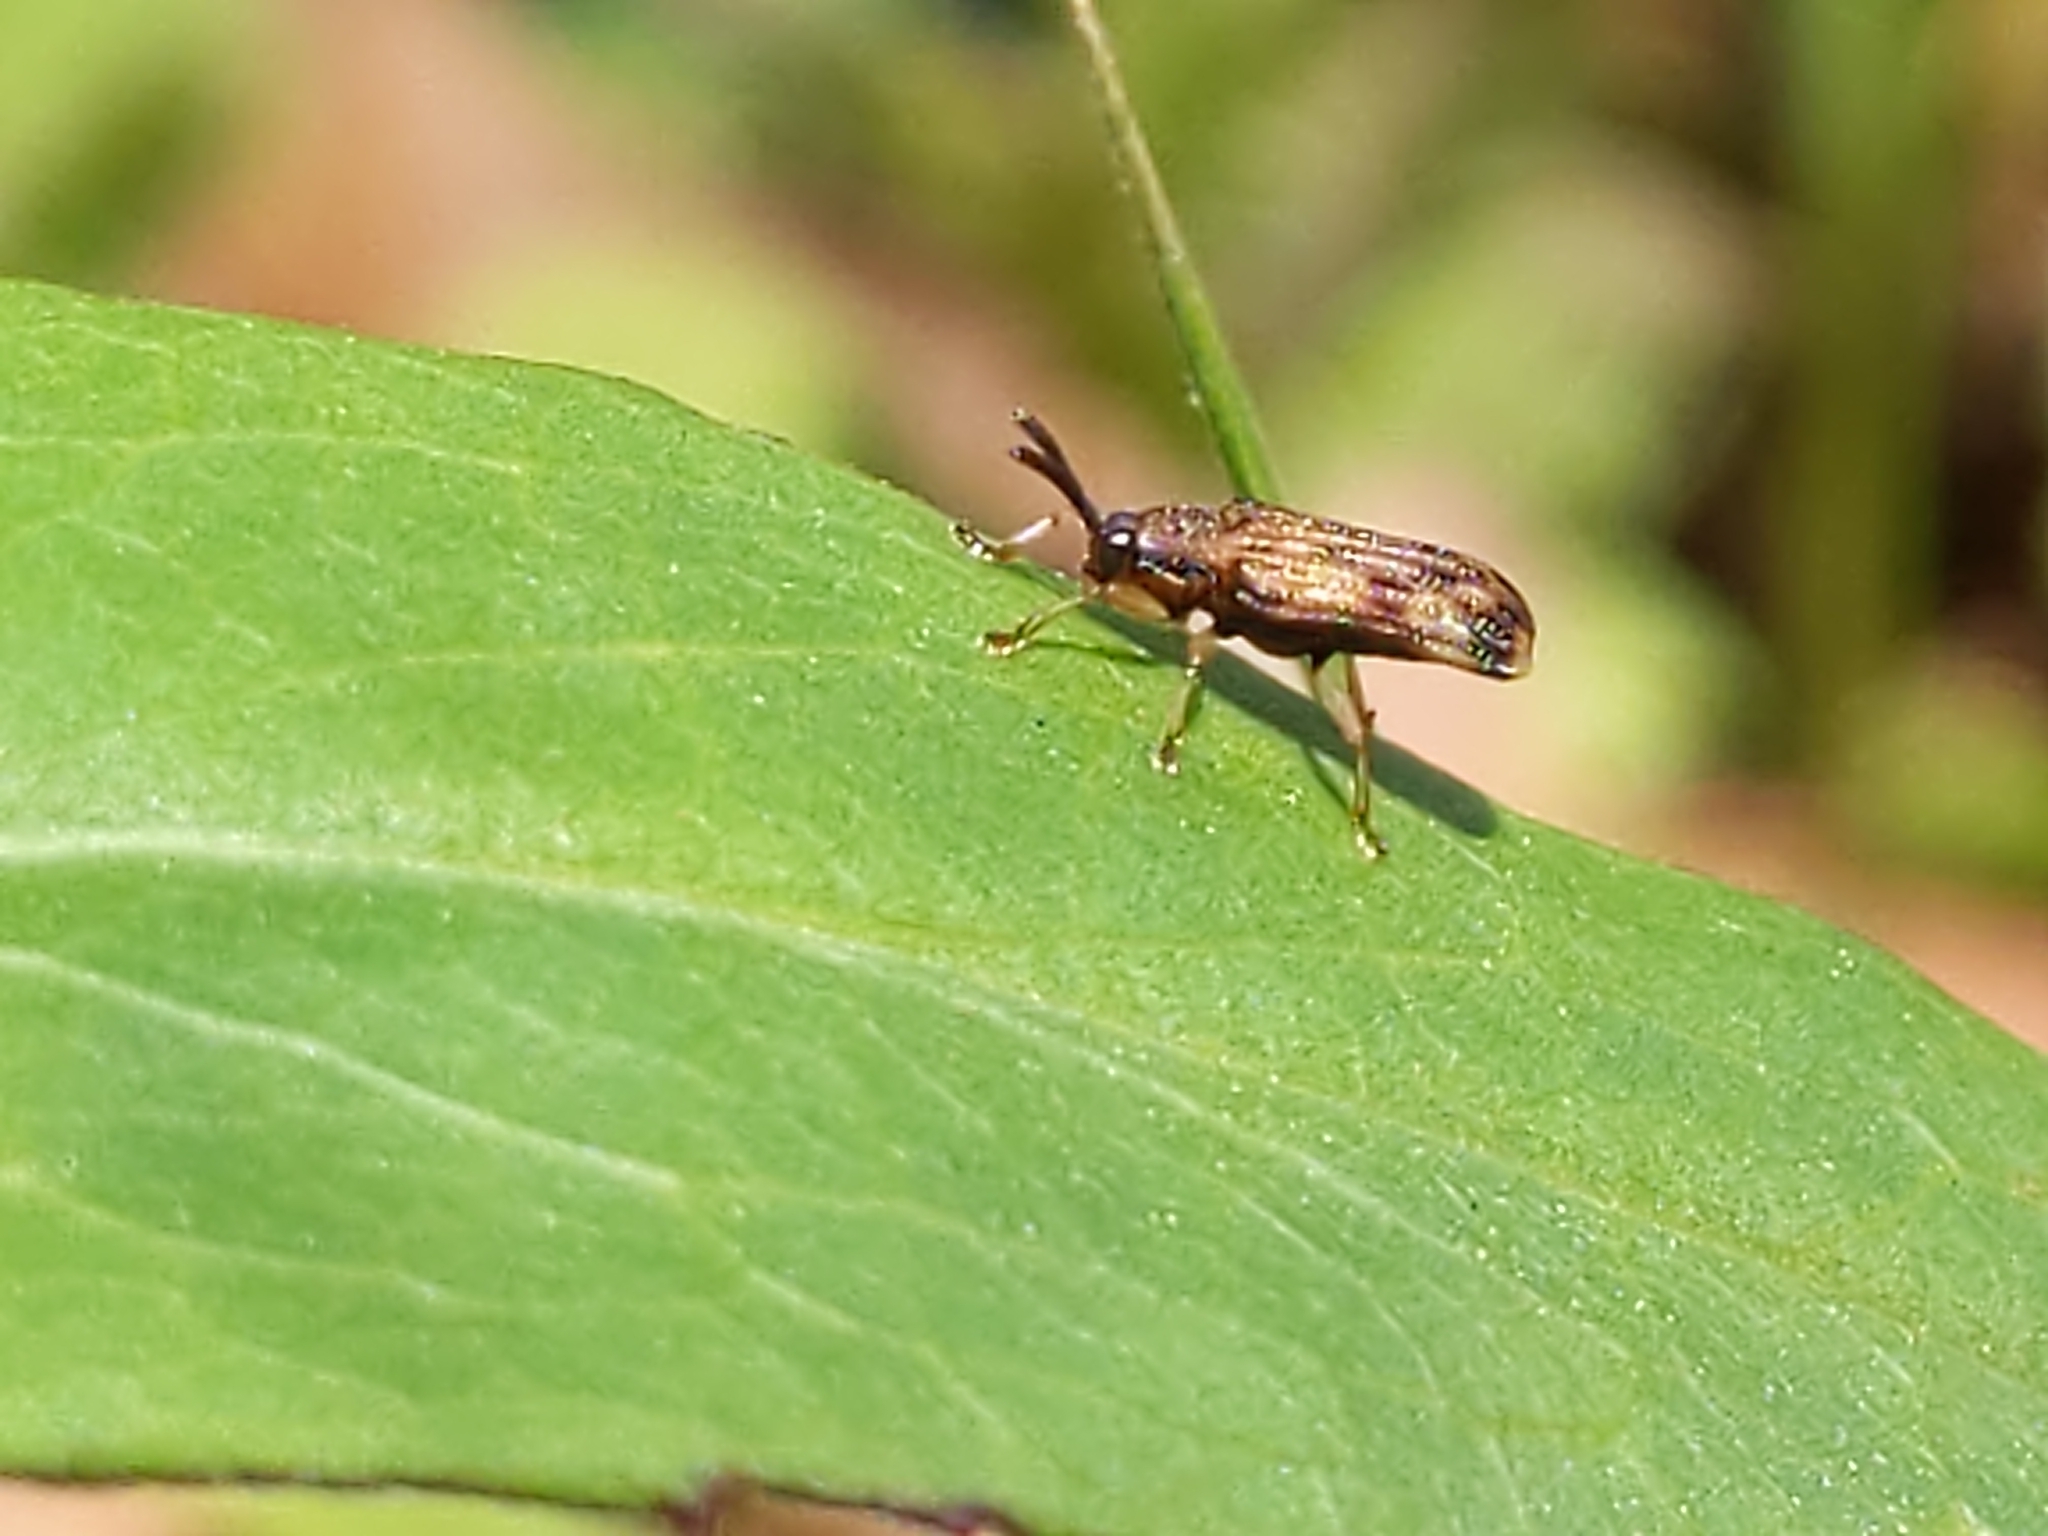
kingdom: Animalia
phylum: Arthropoda
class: Insecta
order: Coleoptera
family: Chrysomelidae
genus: Sumitrosis
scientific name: Sumitrosis inaequalis
